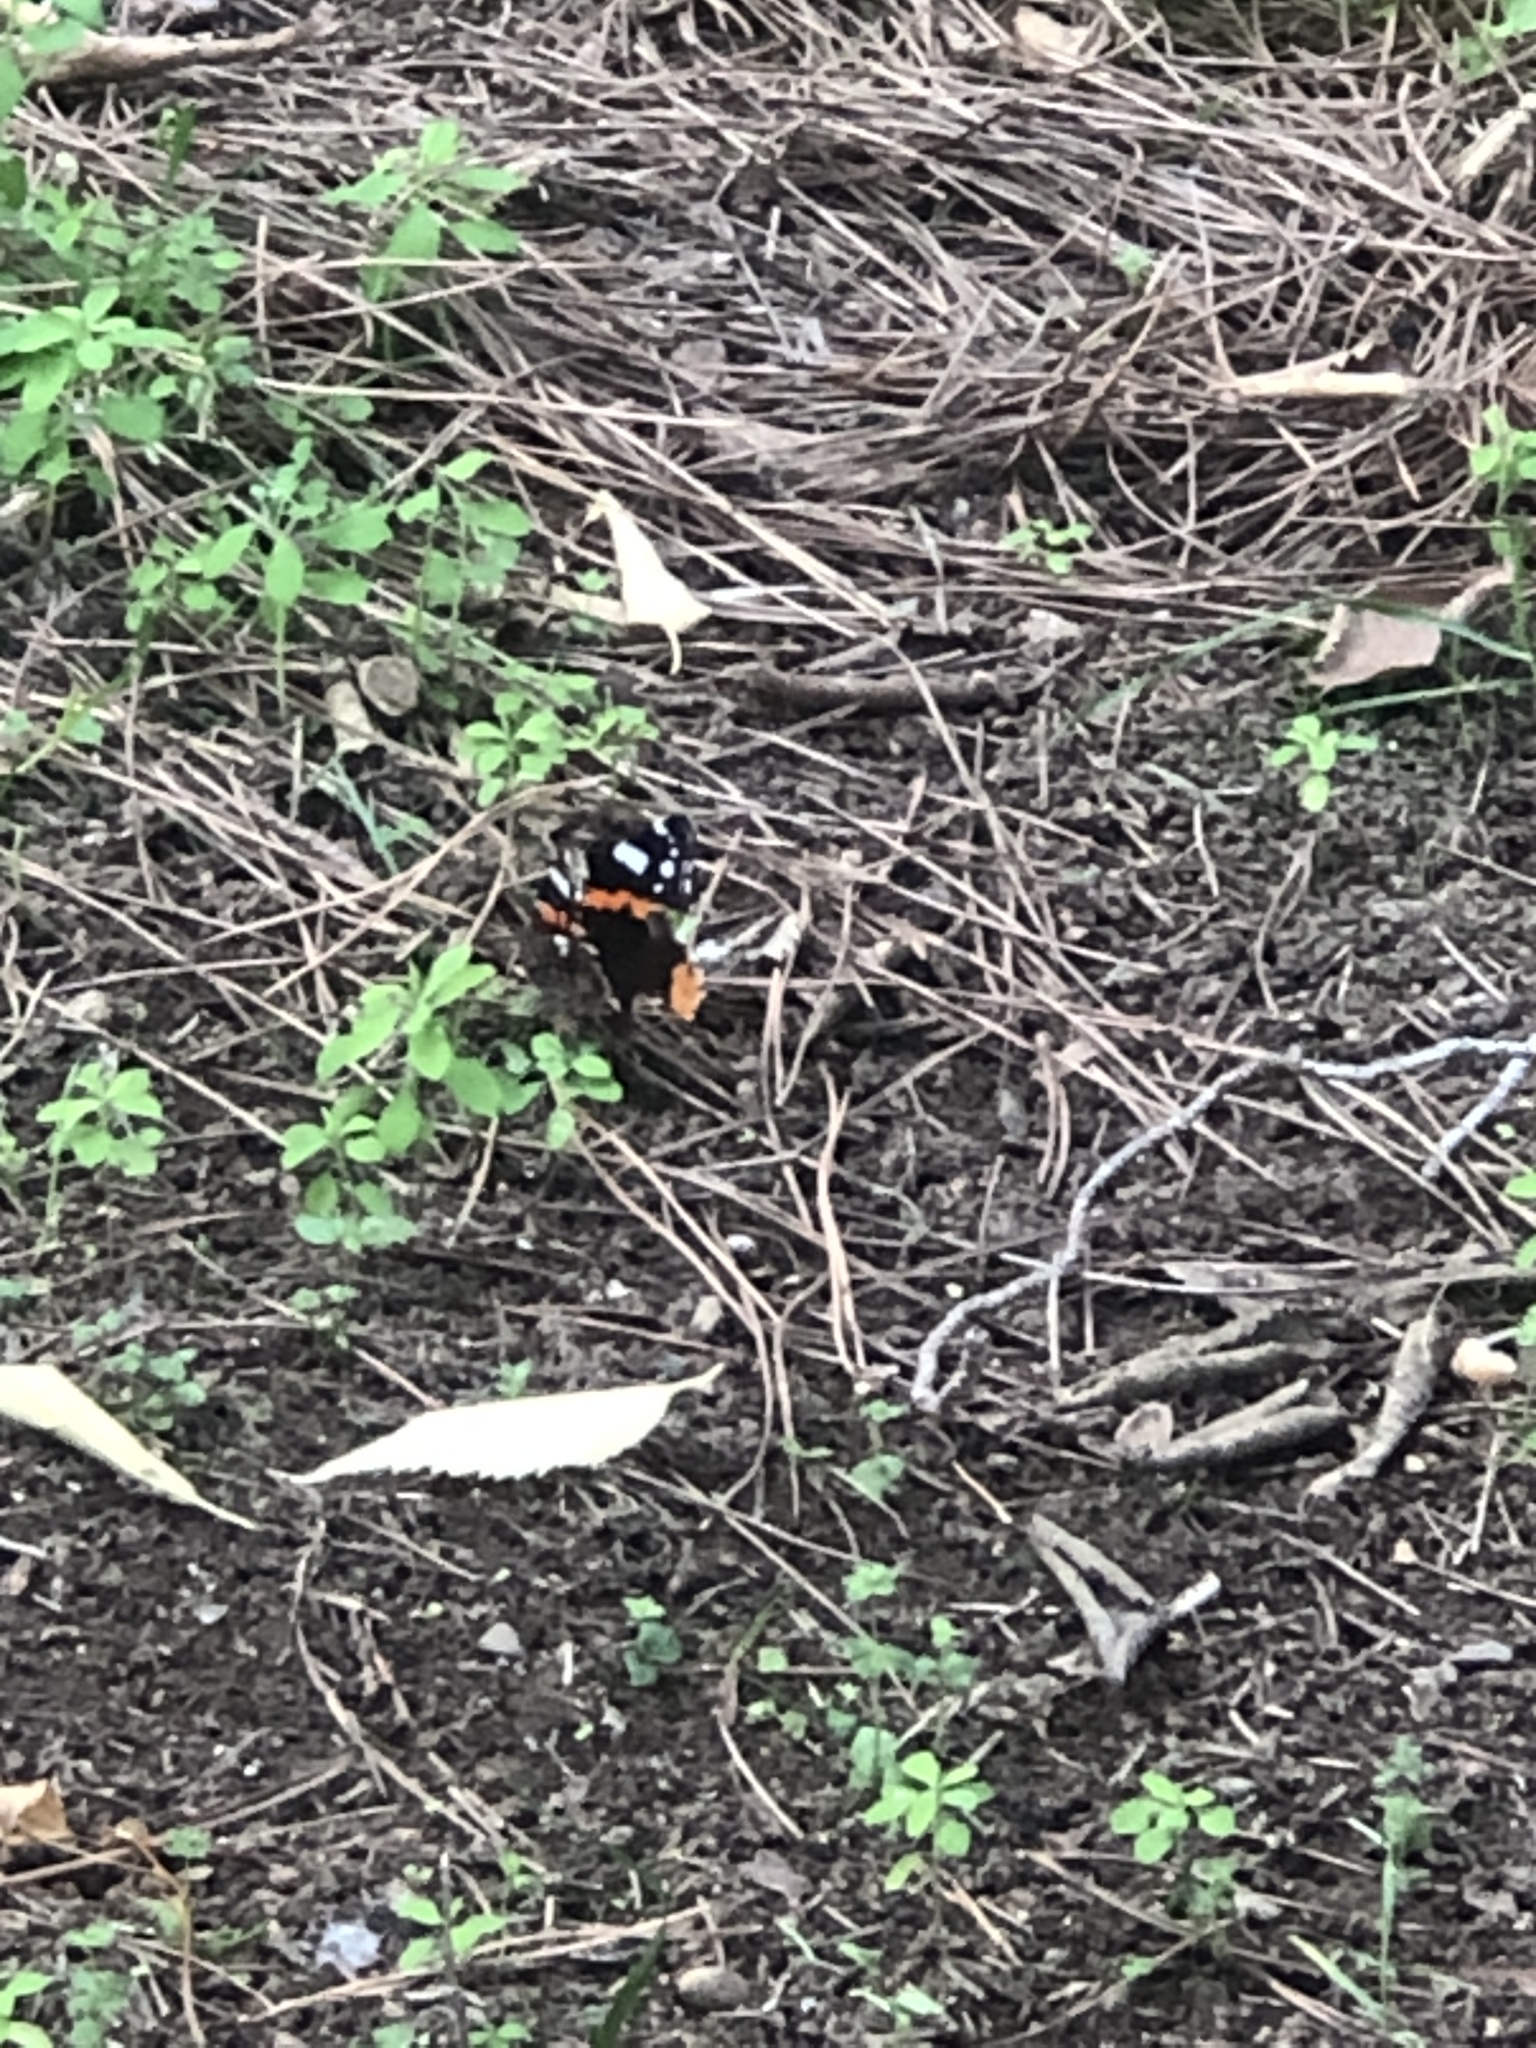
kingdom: Animalia
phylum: Arthropoda
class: Insecta
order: Lepidoptera
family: Nymphalidae
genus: Vanessa
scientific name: Vanessa atalanta
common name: Red admiral
